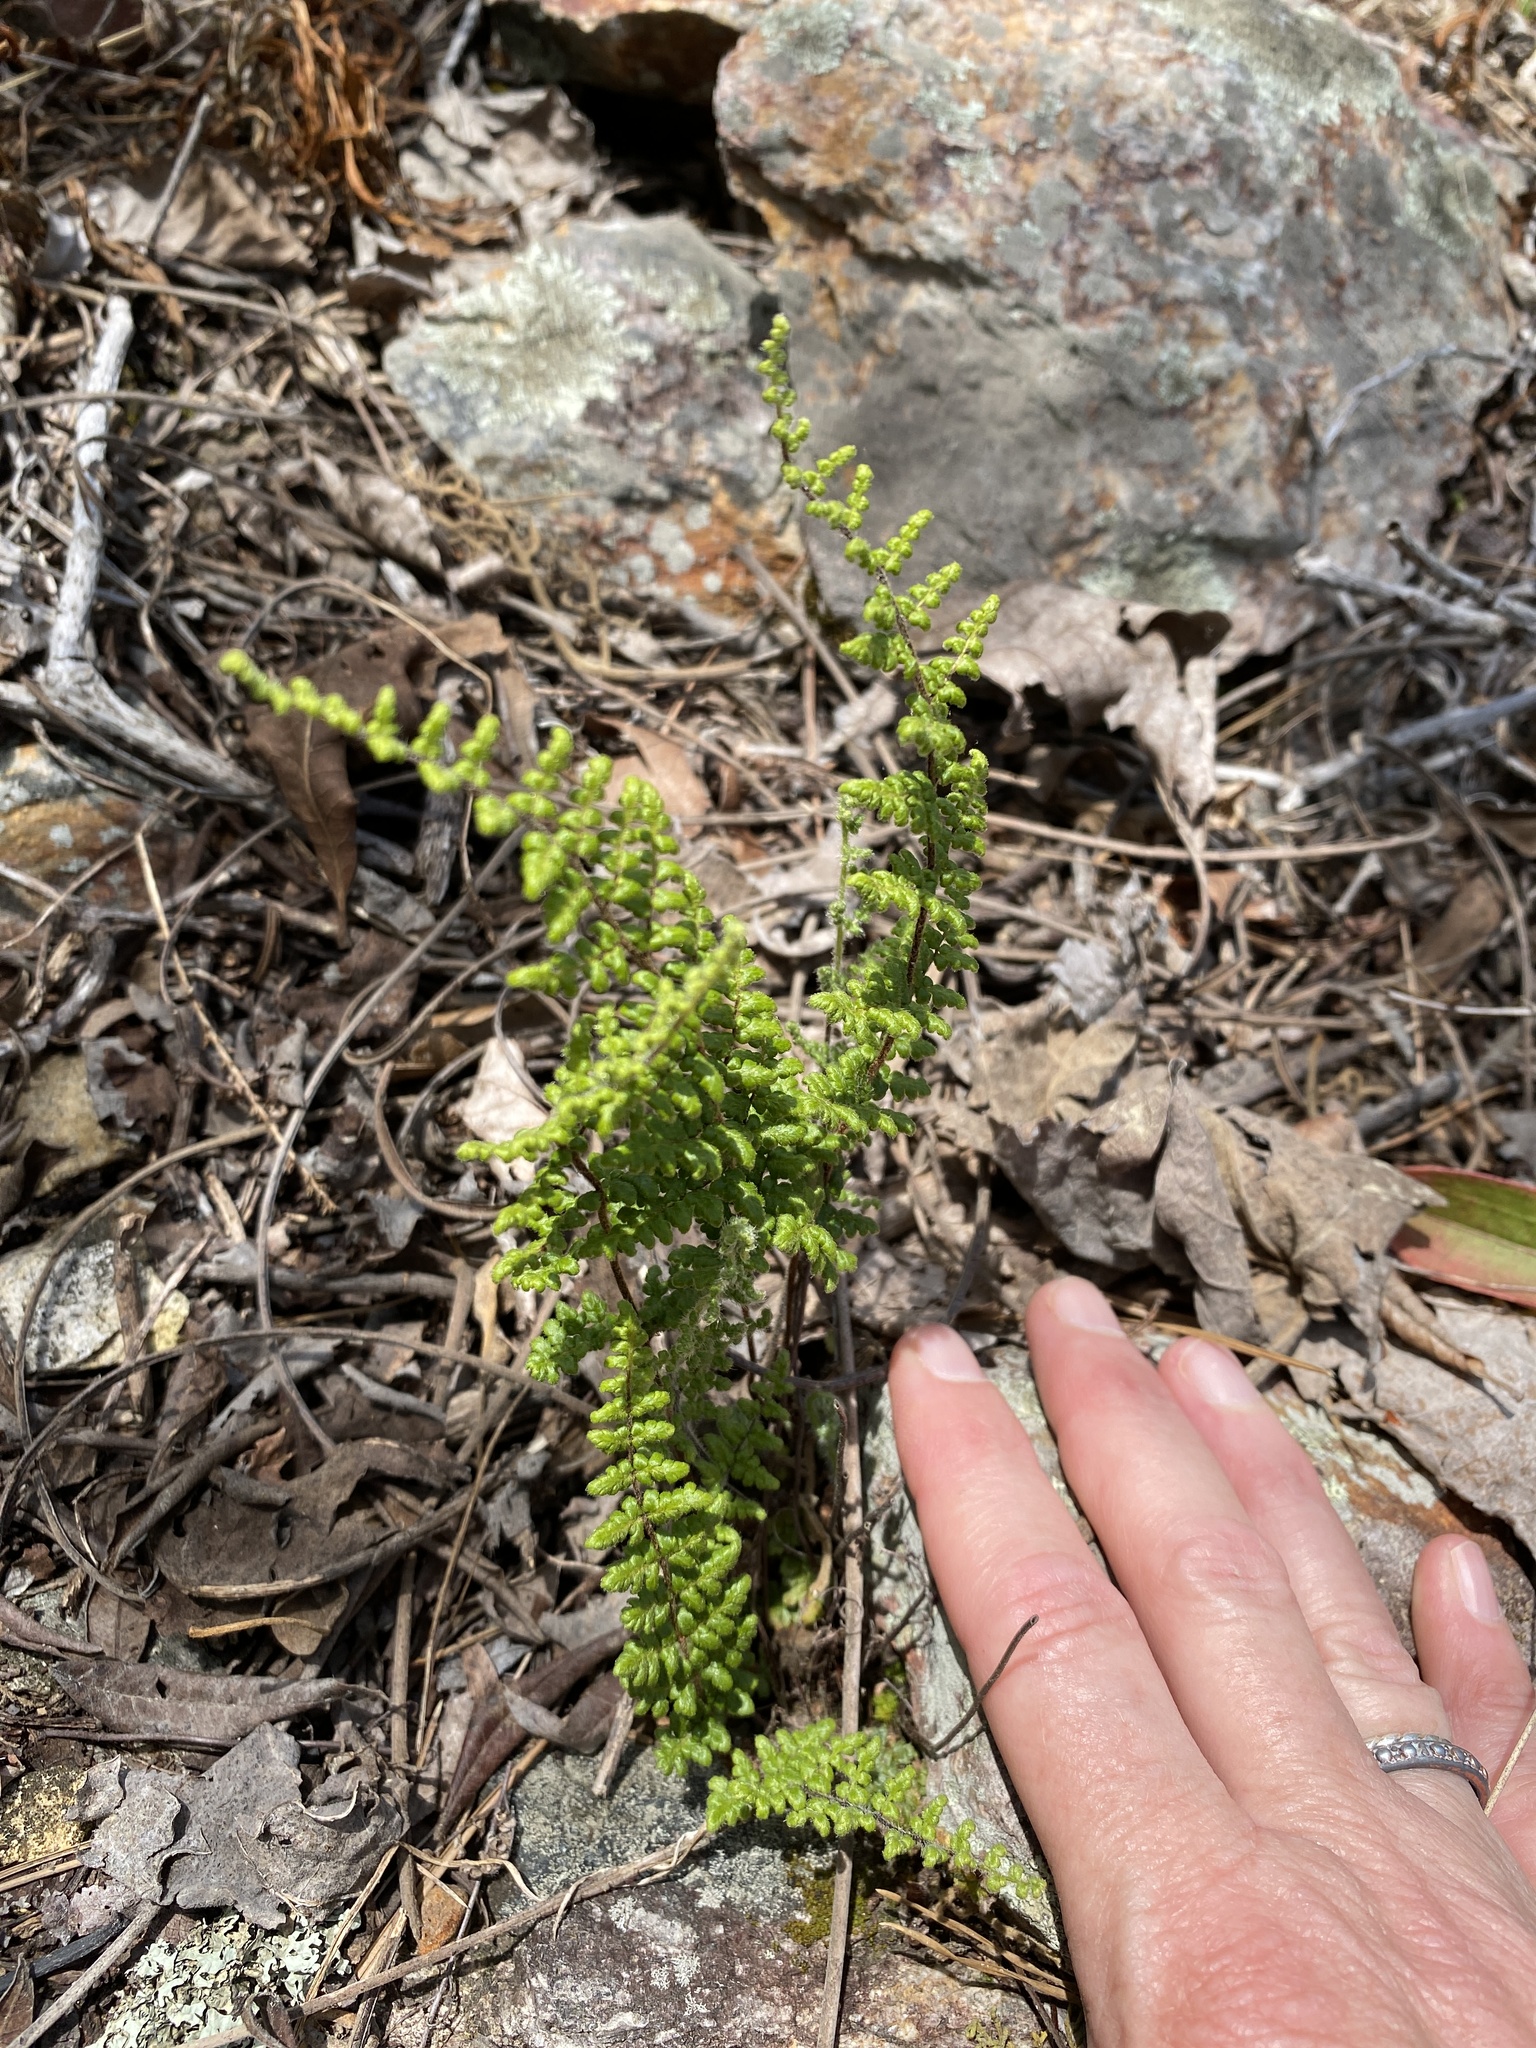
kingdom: Plantae
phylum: Tracheophyta
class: Polypodiopsida
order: Polypodiales
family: Pteridaceae
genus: Myriopteris
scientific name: Myriopteris lanosa
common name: Hairy lip fern
